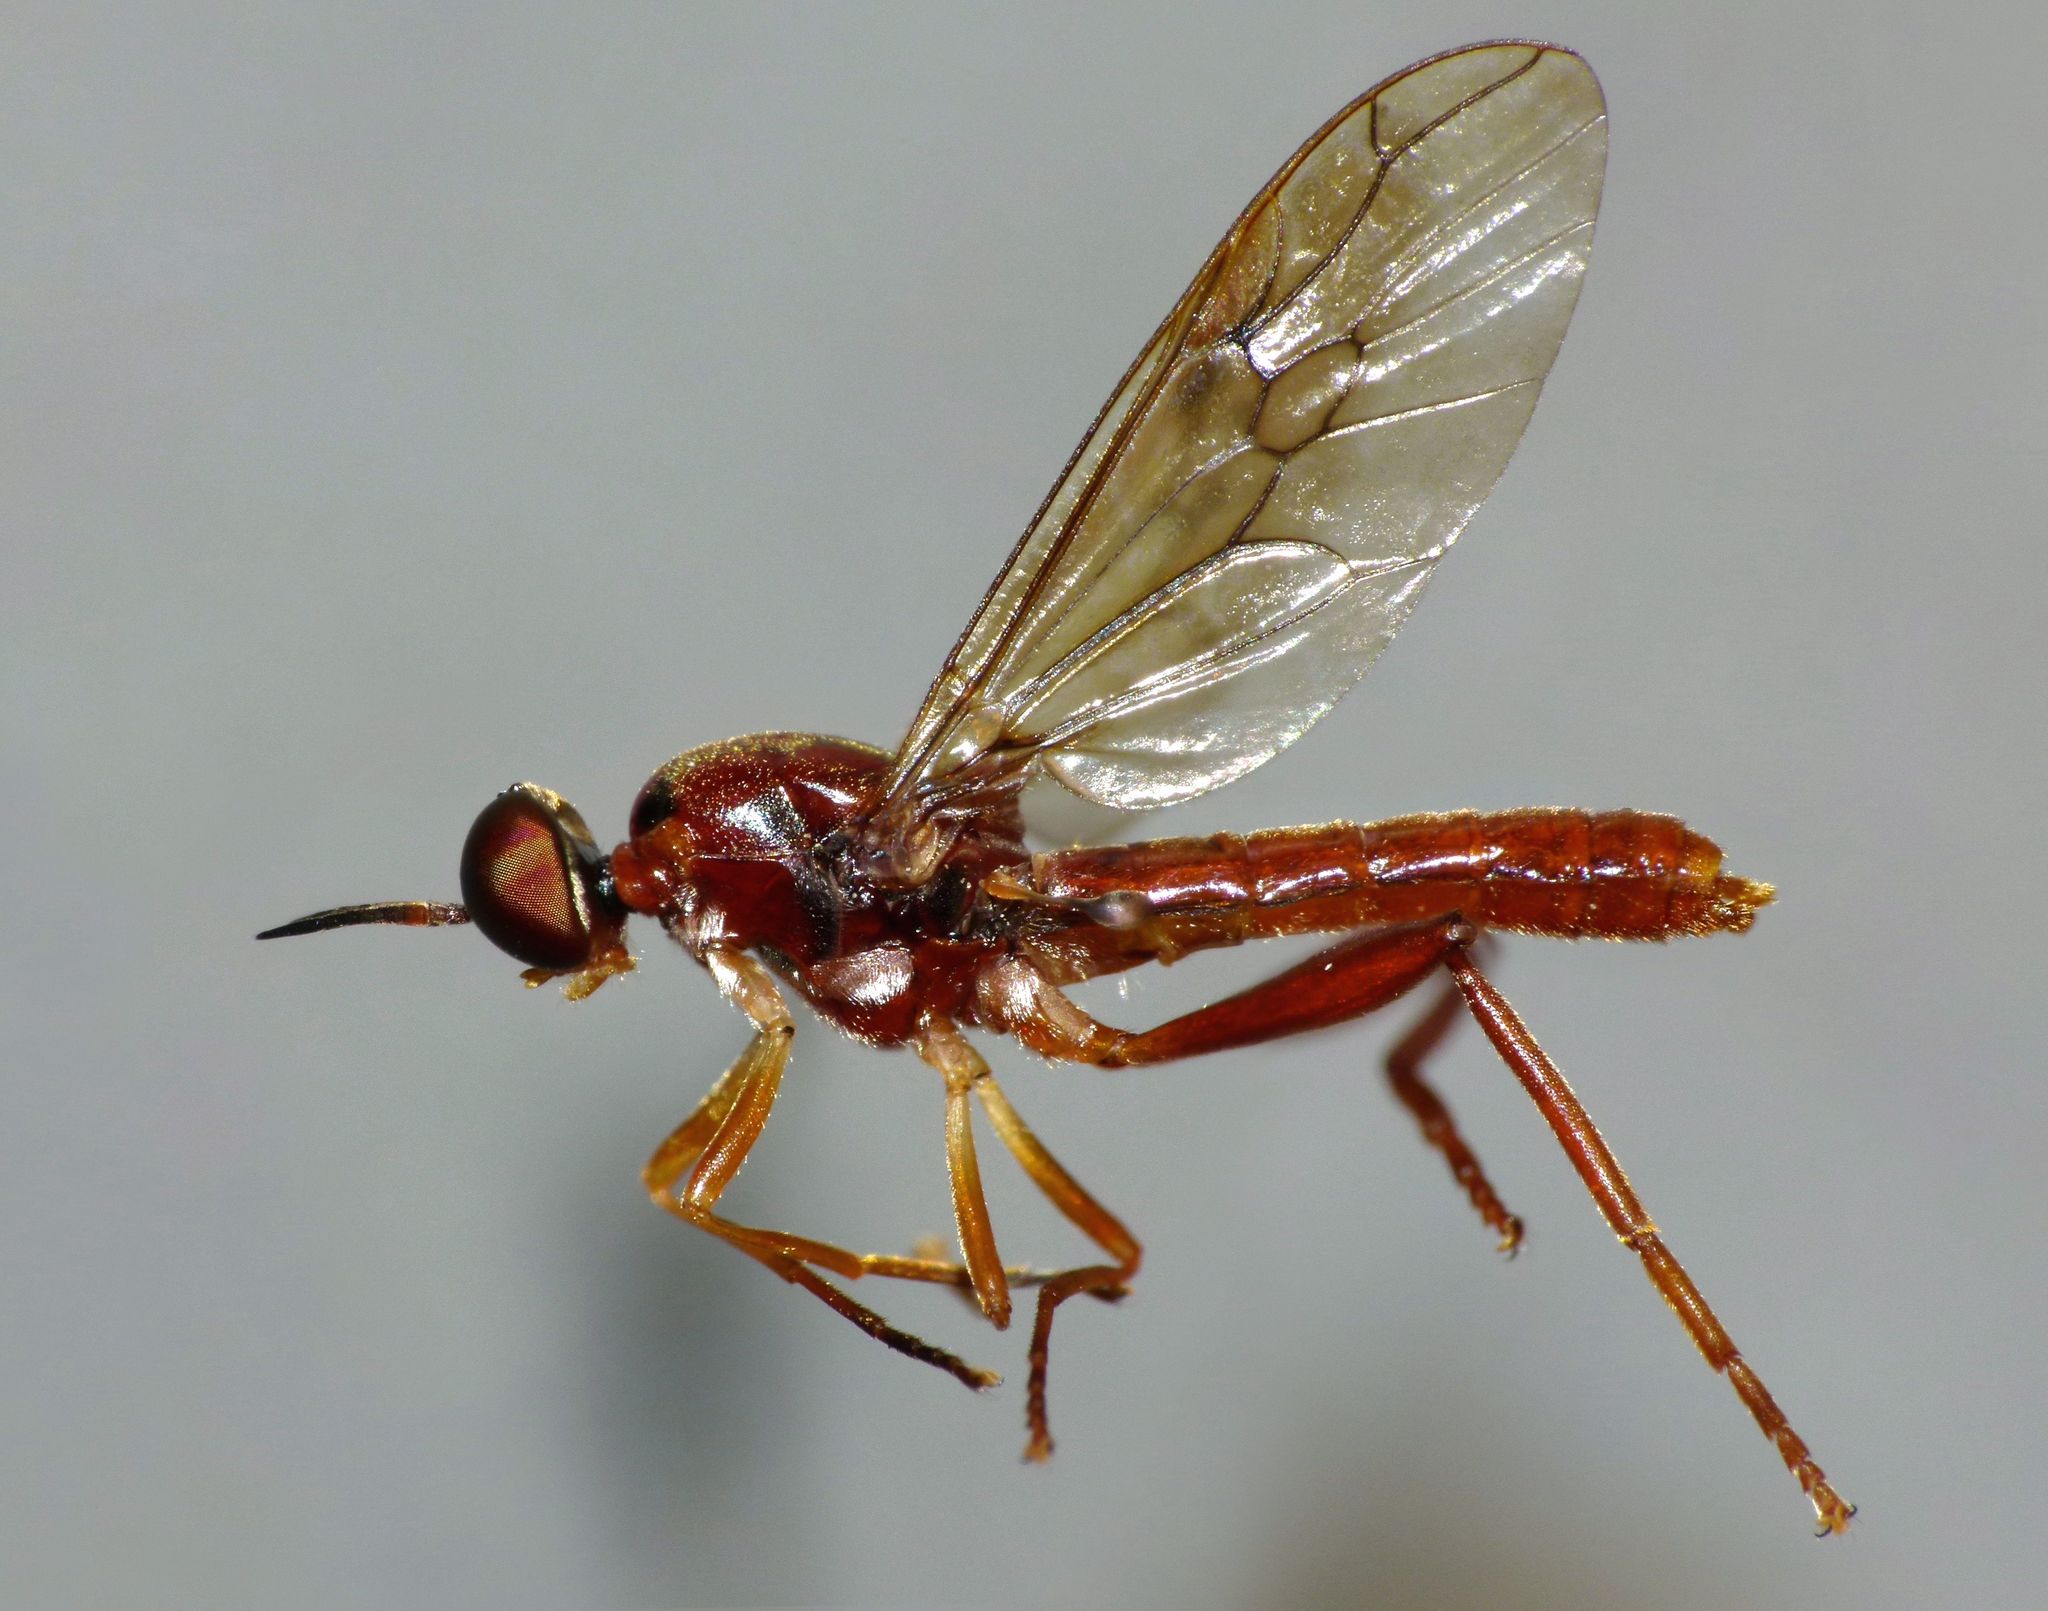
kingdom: Animalia
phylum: Arthropoda
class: Insecta
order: Diptera
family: Stratiomyidae
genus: Benhamyia
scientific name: Benhamyia straznitzkii
